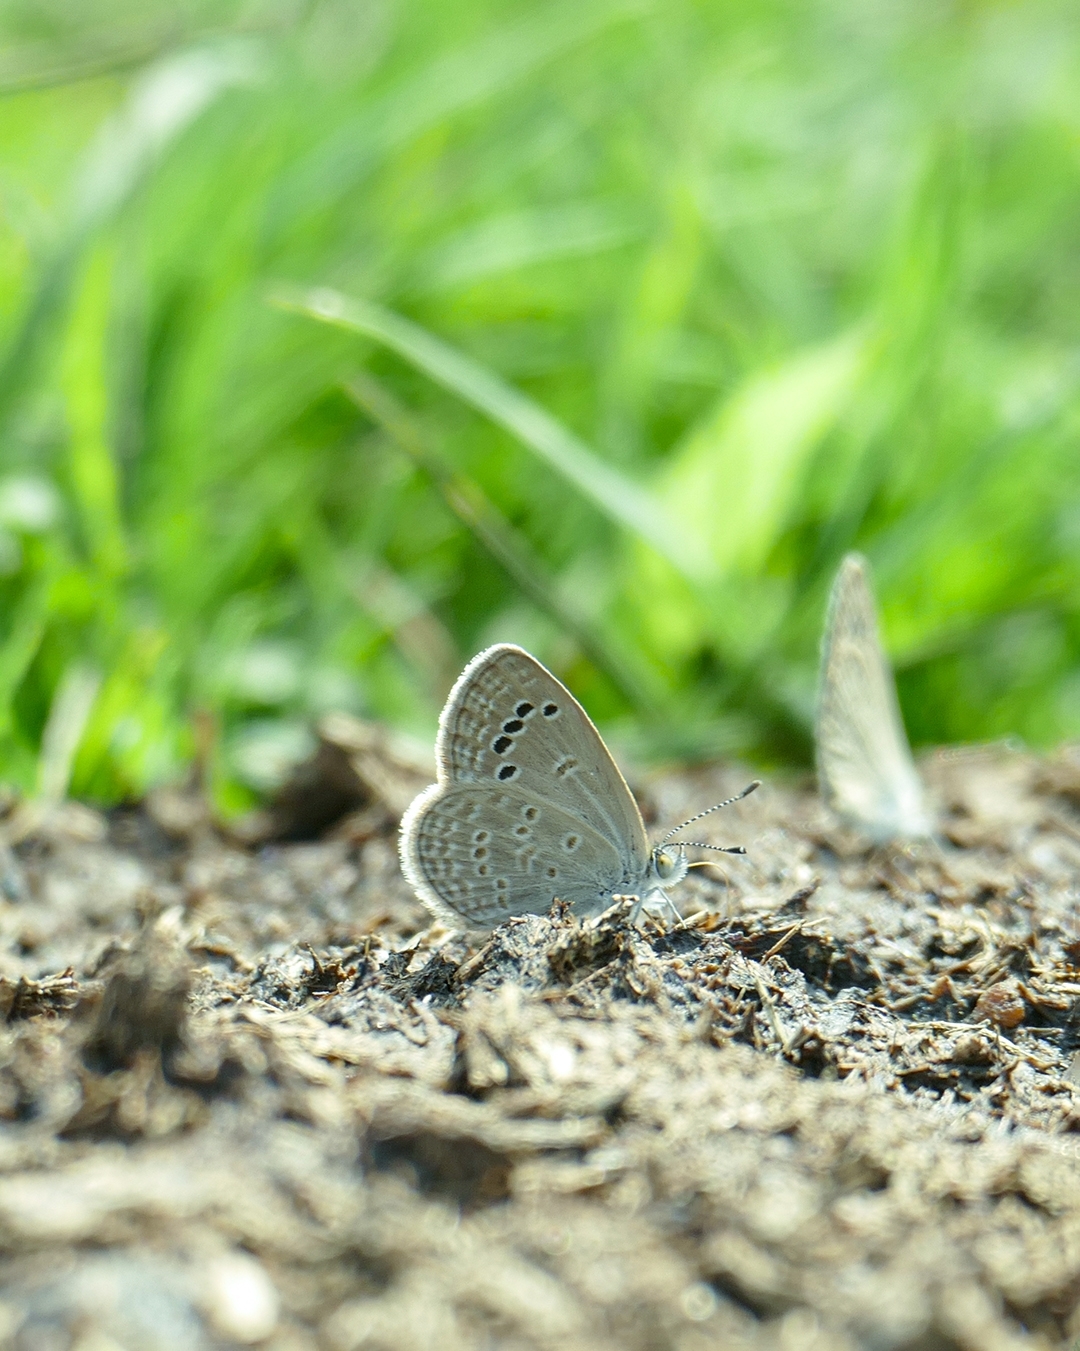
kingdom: Animalia
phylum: Arthropoda
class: Insecta
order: Lepidoptera
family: Lycaenidae
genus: Zizina
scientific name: Zizina otis
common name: Lesser grass blue
